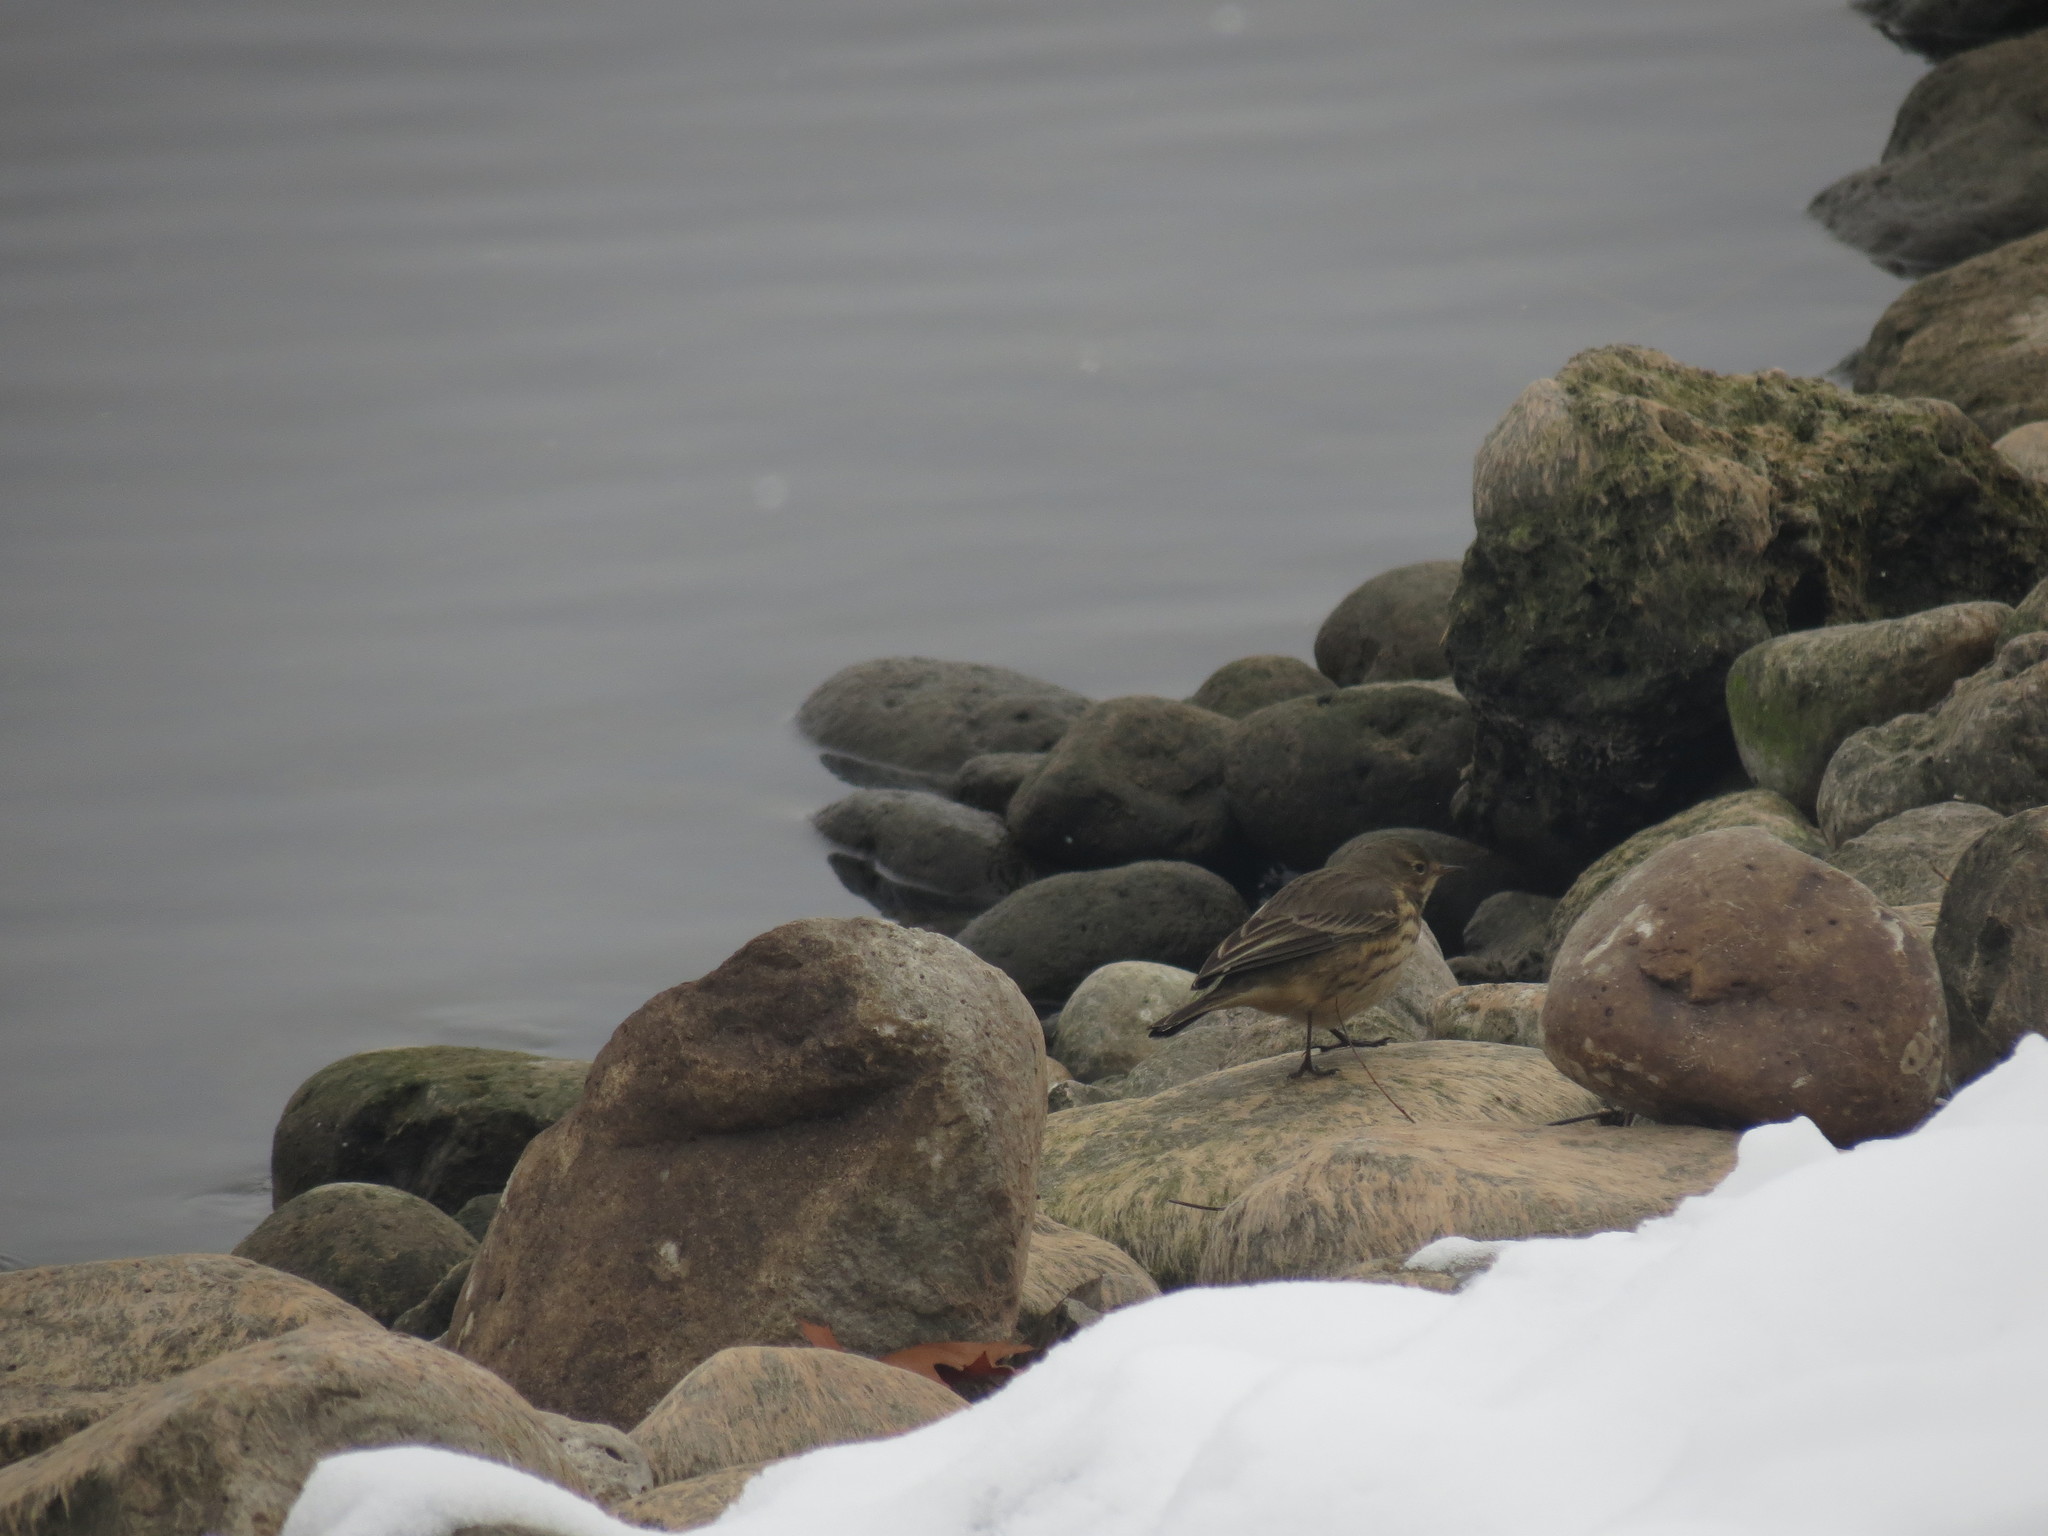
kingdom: Animalia
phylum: Chordata
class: Aves
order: Passeriformes
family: Motacillidae
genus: Anthus
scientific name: Anthus rubescens
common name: Buff-bellied pipit
